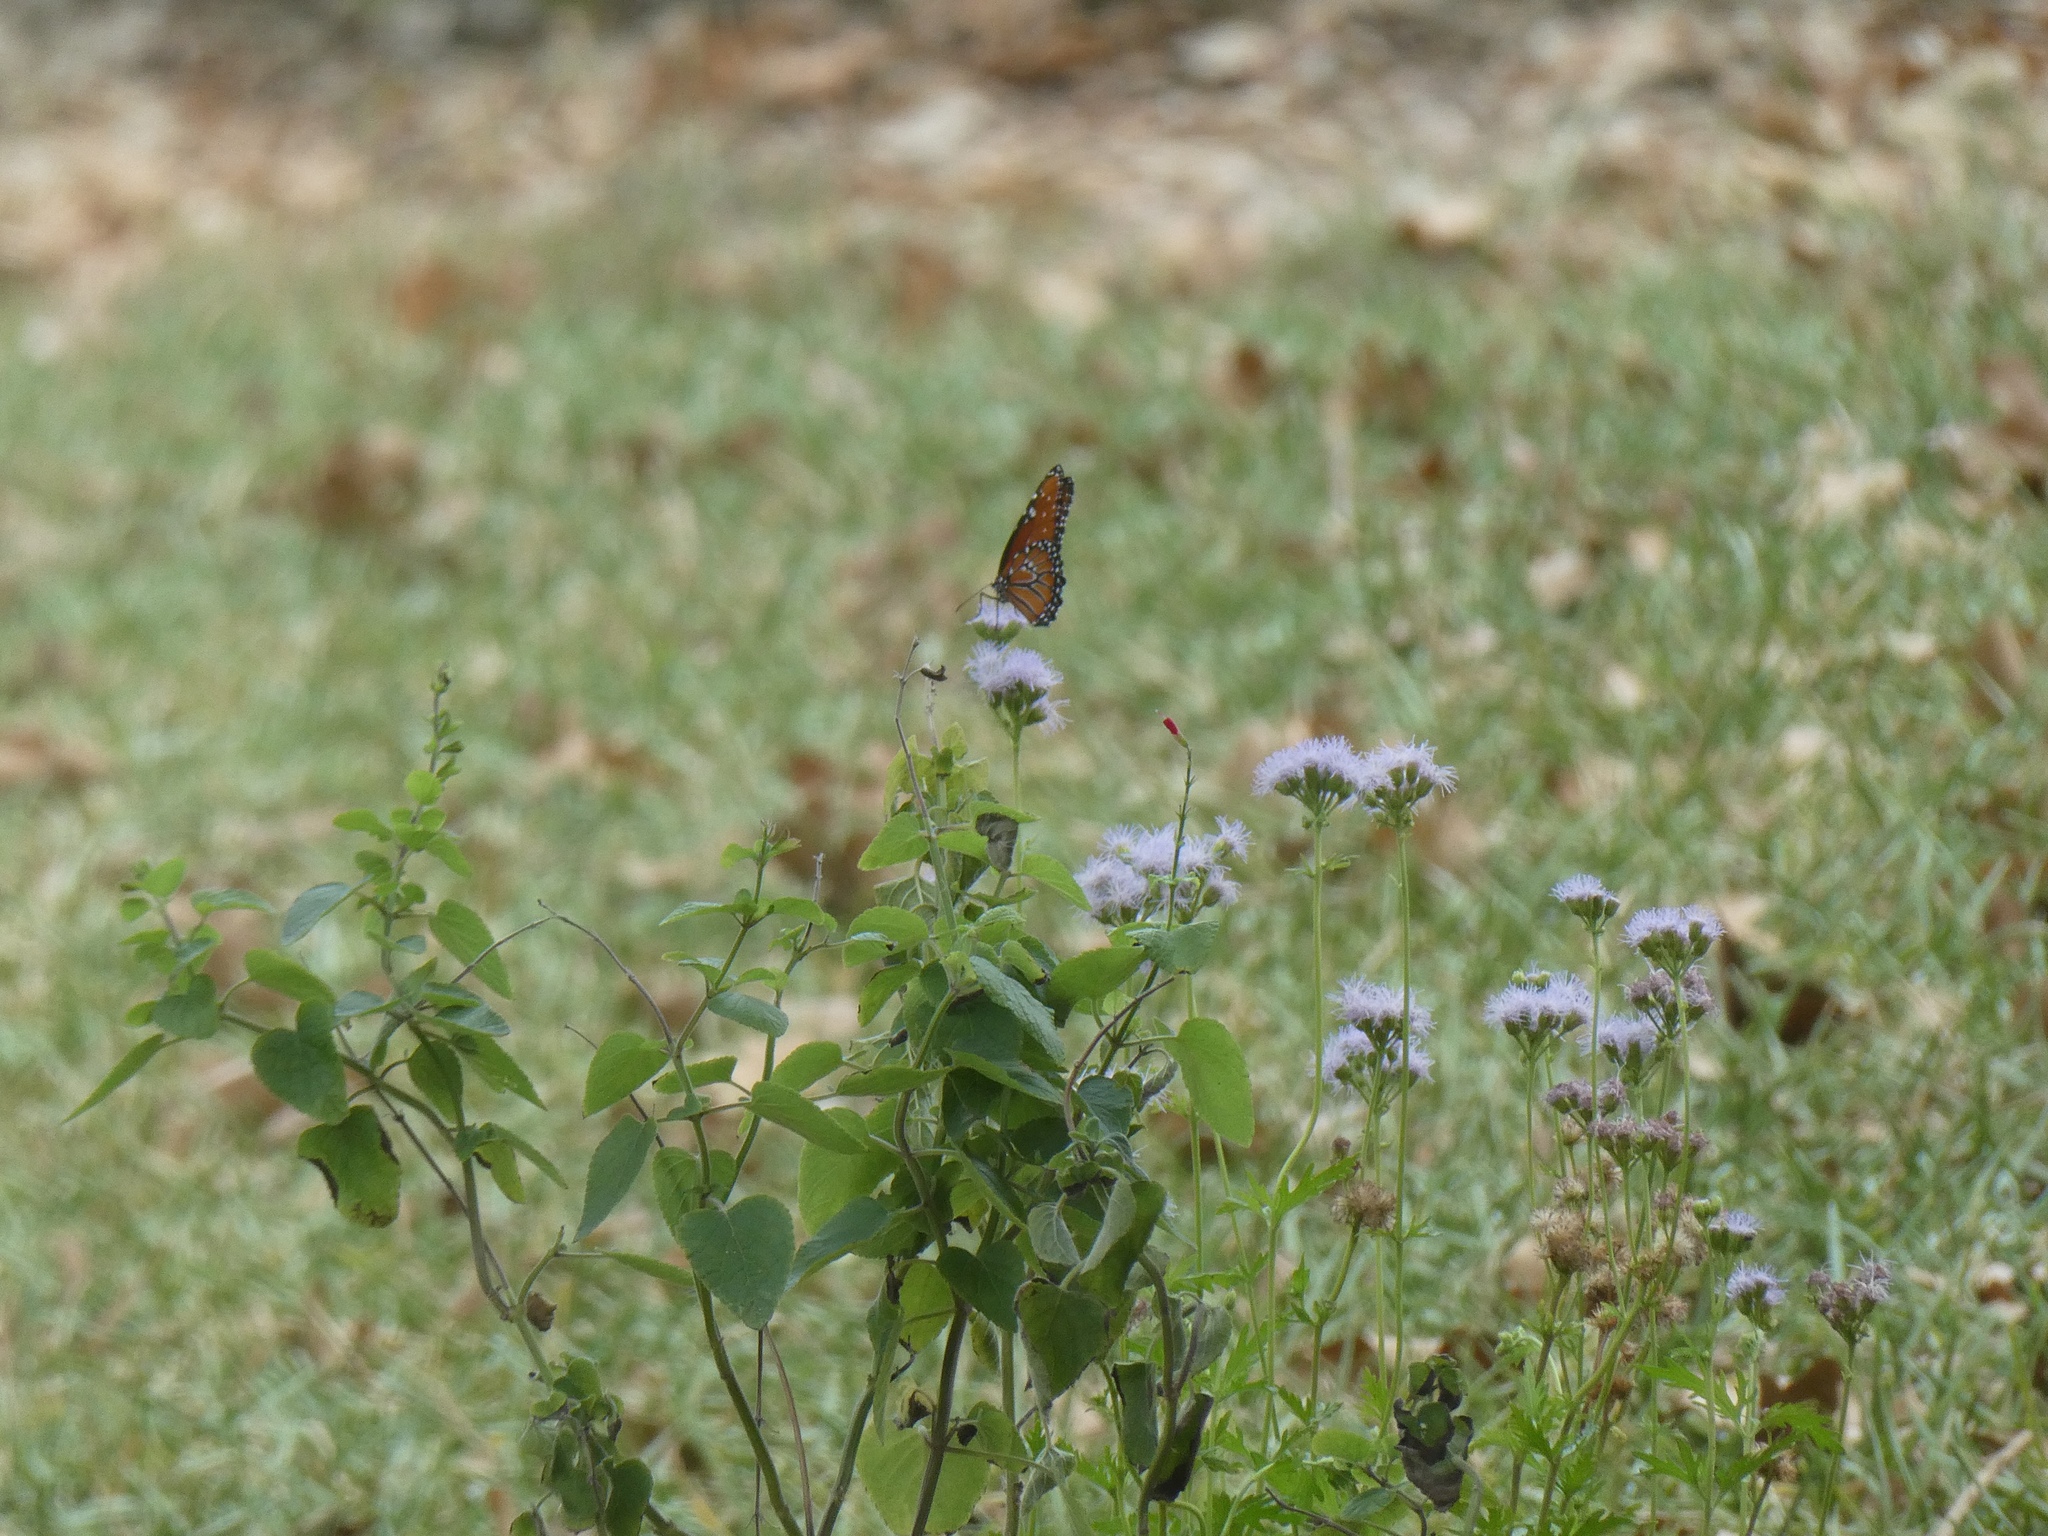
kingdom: Animalia
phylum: Arthropoda
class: Insecta
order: Lepidoptera
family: Nymphalidae
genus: Danaus
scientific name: Danaus gilippus
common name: Queen
